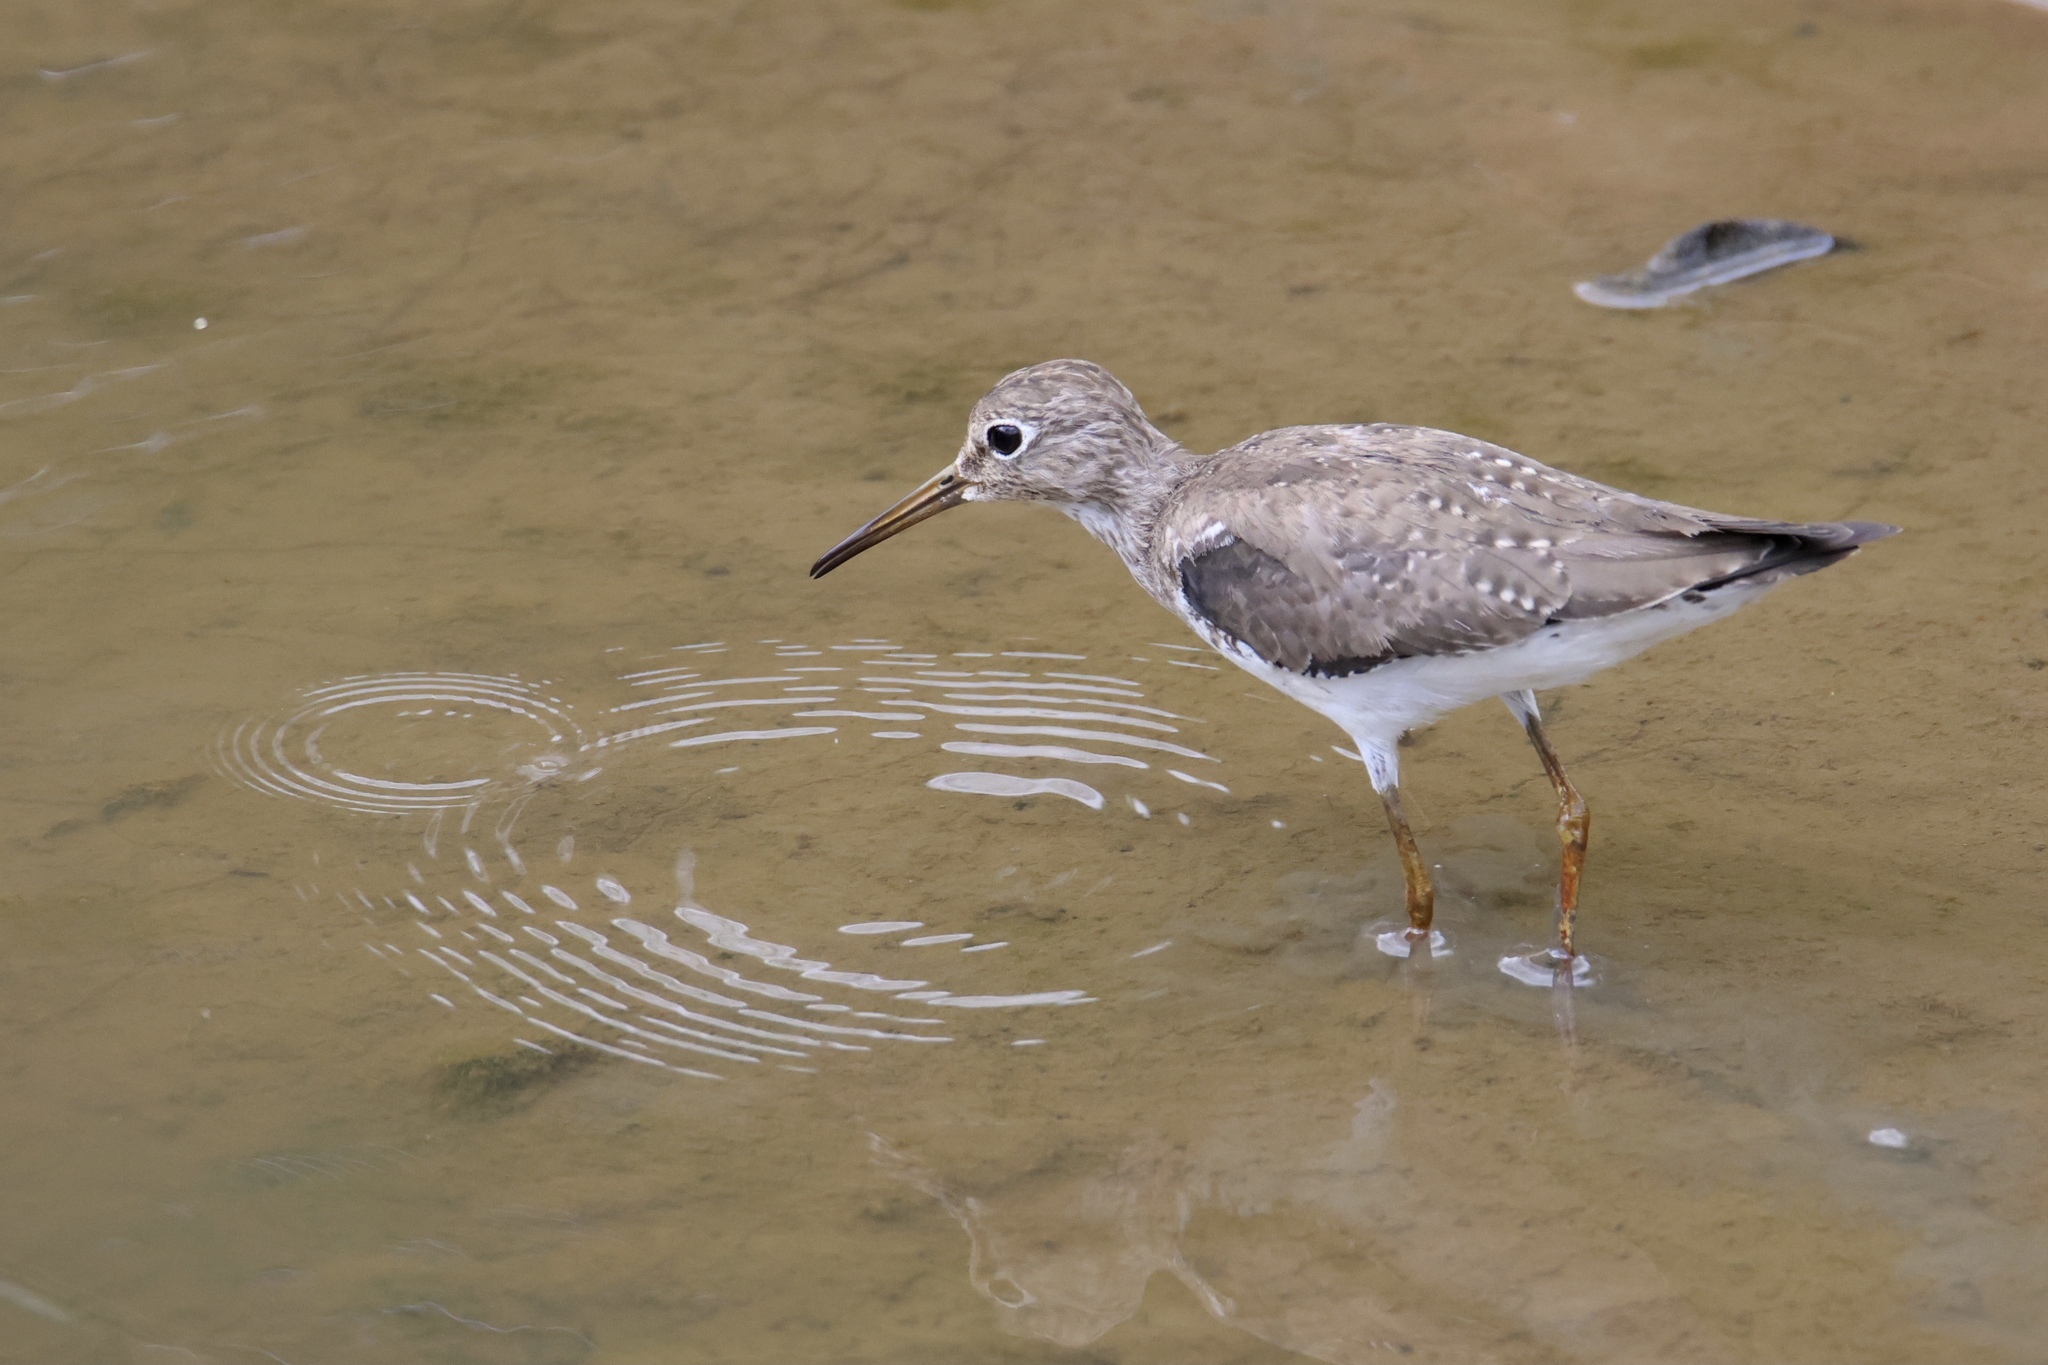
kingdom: Animalia
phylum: Chordata
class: Aves
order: Charadriiformes
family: Scolopacidae
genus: Tringa
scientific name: Tringa solitaria
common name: Solitary sandpiper
